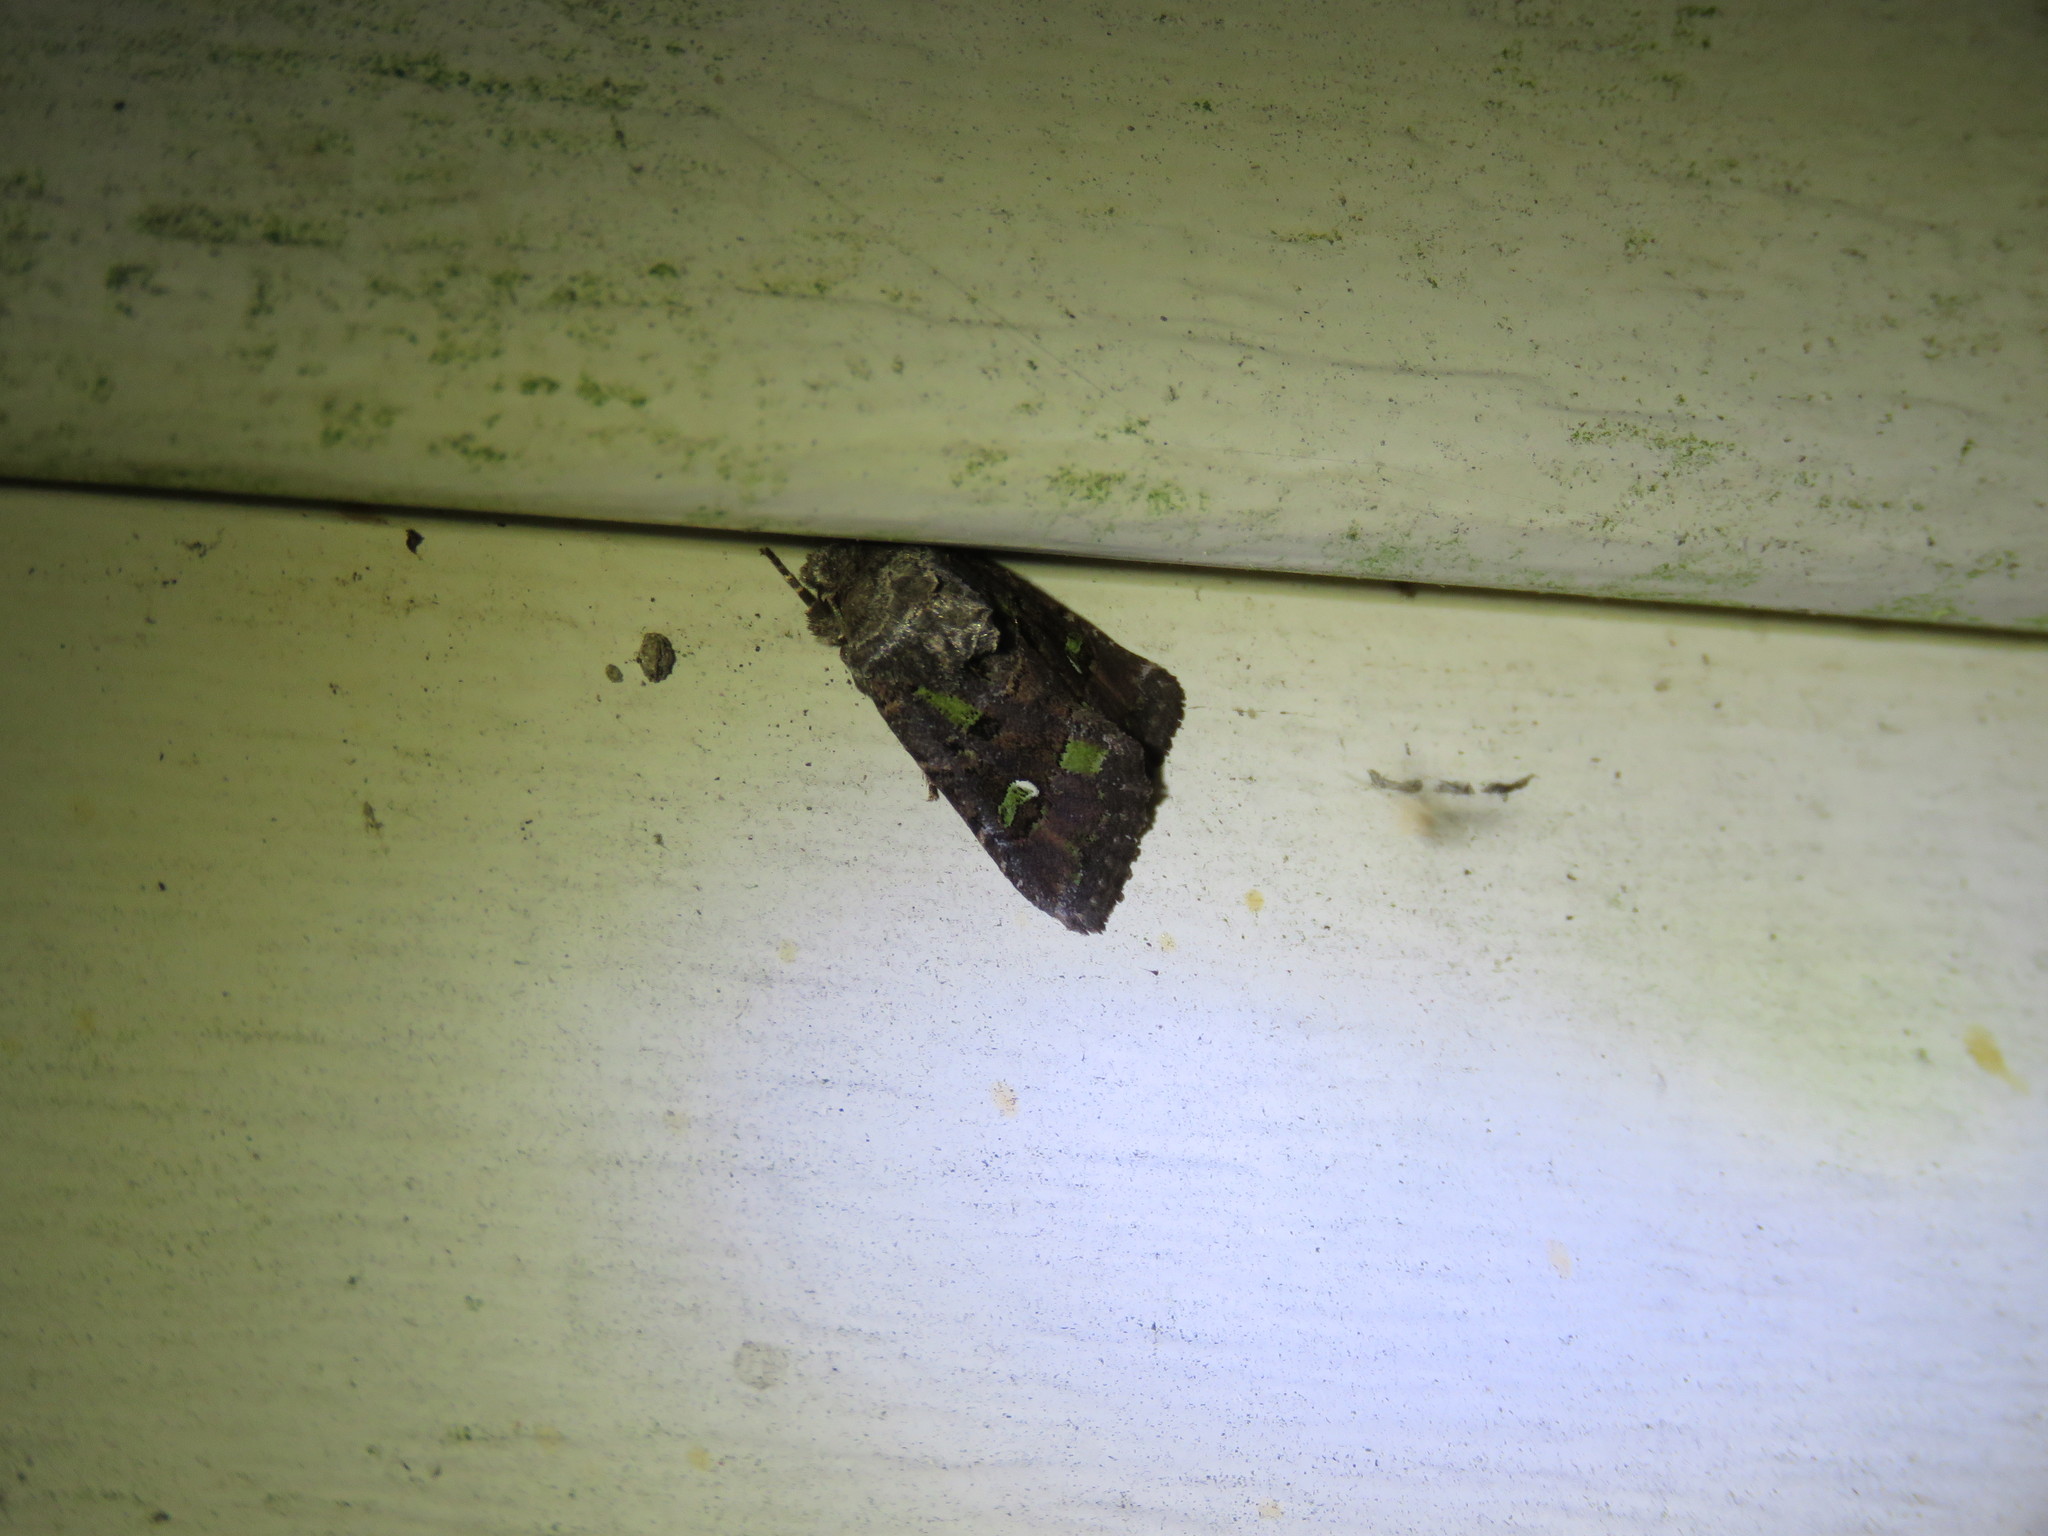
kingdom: Animalia
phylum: Arthropoda
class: Insecta
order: Lepidoptera
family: Noctuidae
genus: Lacinipolia
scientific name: Lacinipolia renigera
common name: Kidney-spotted minor
